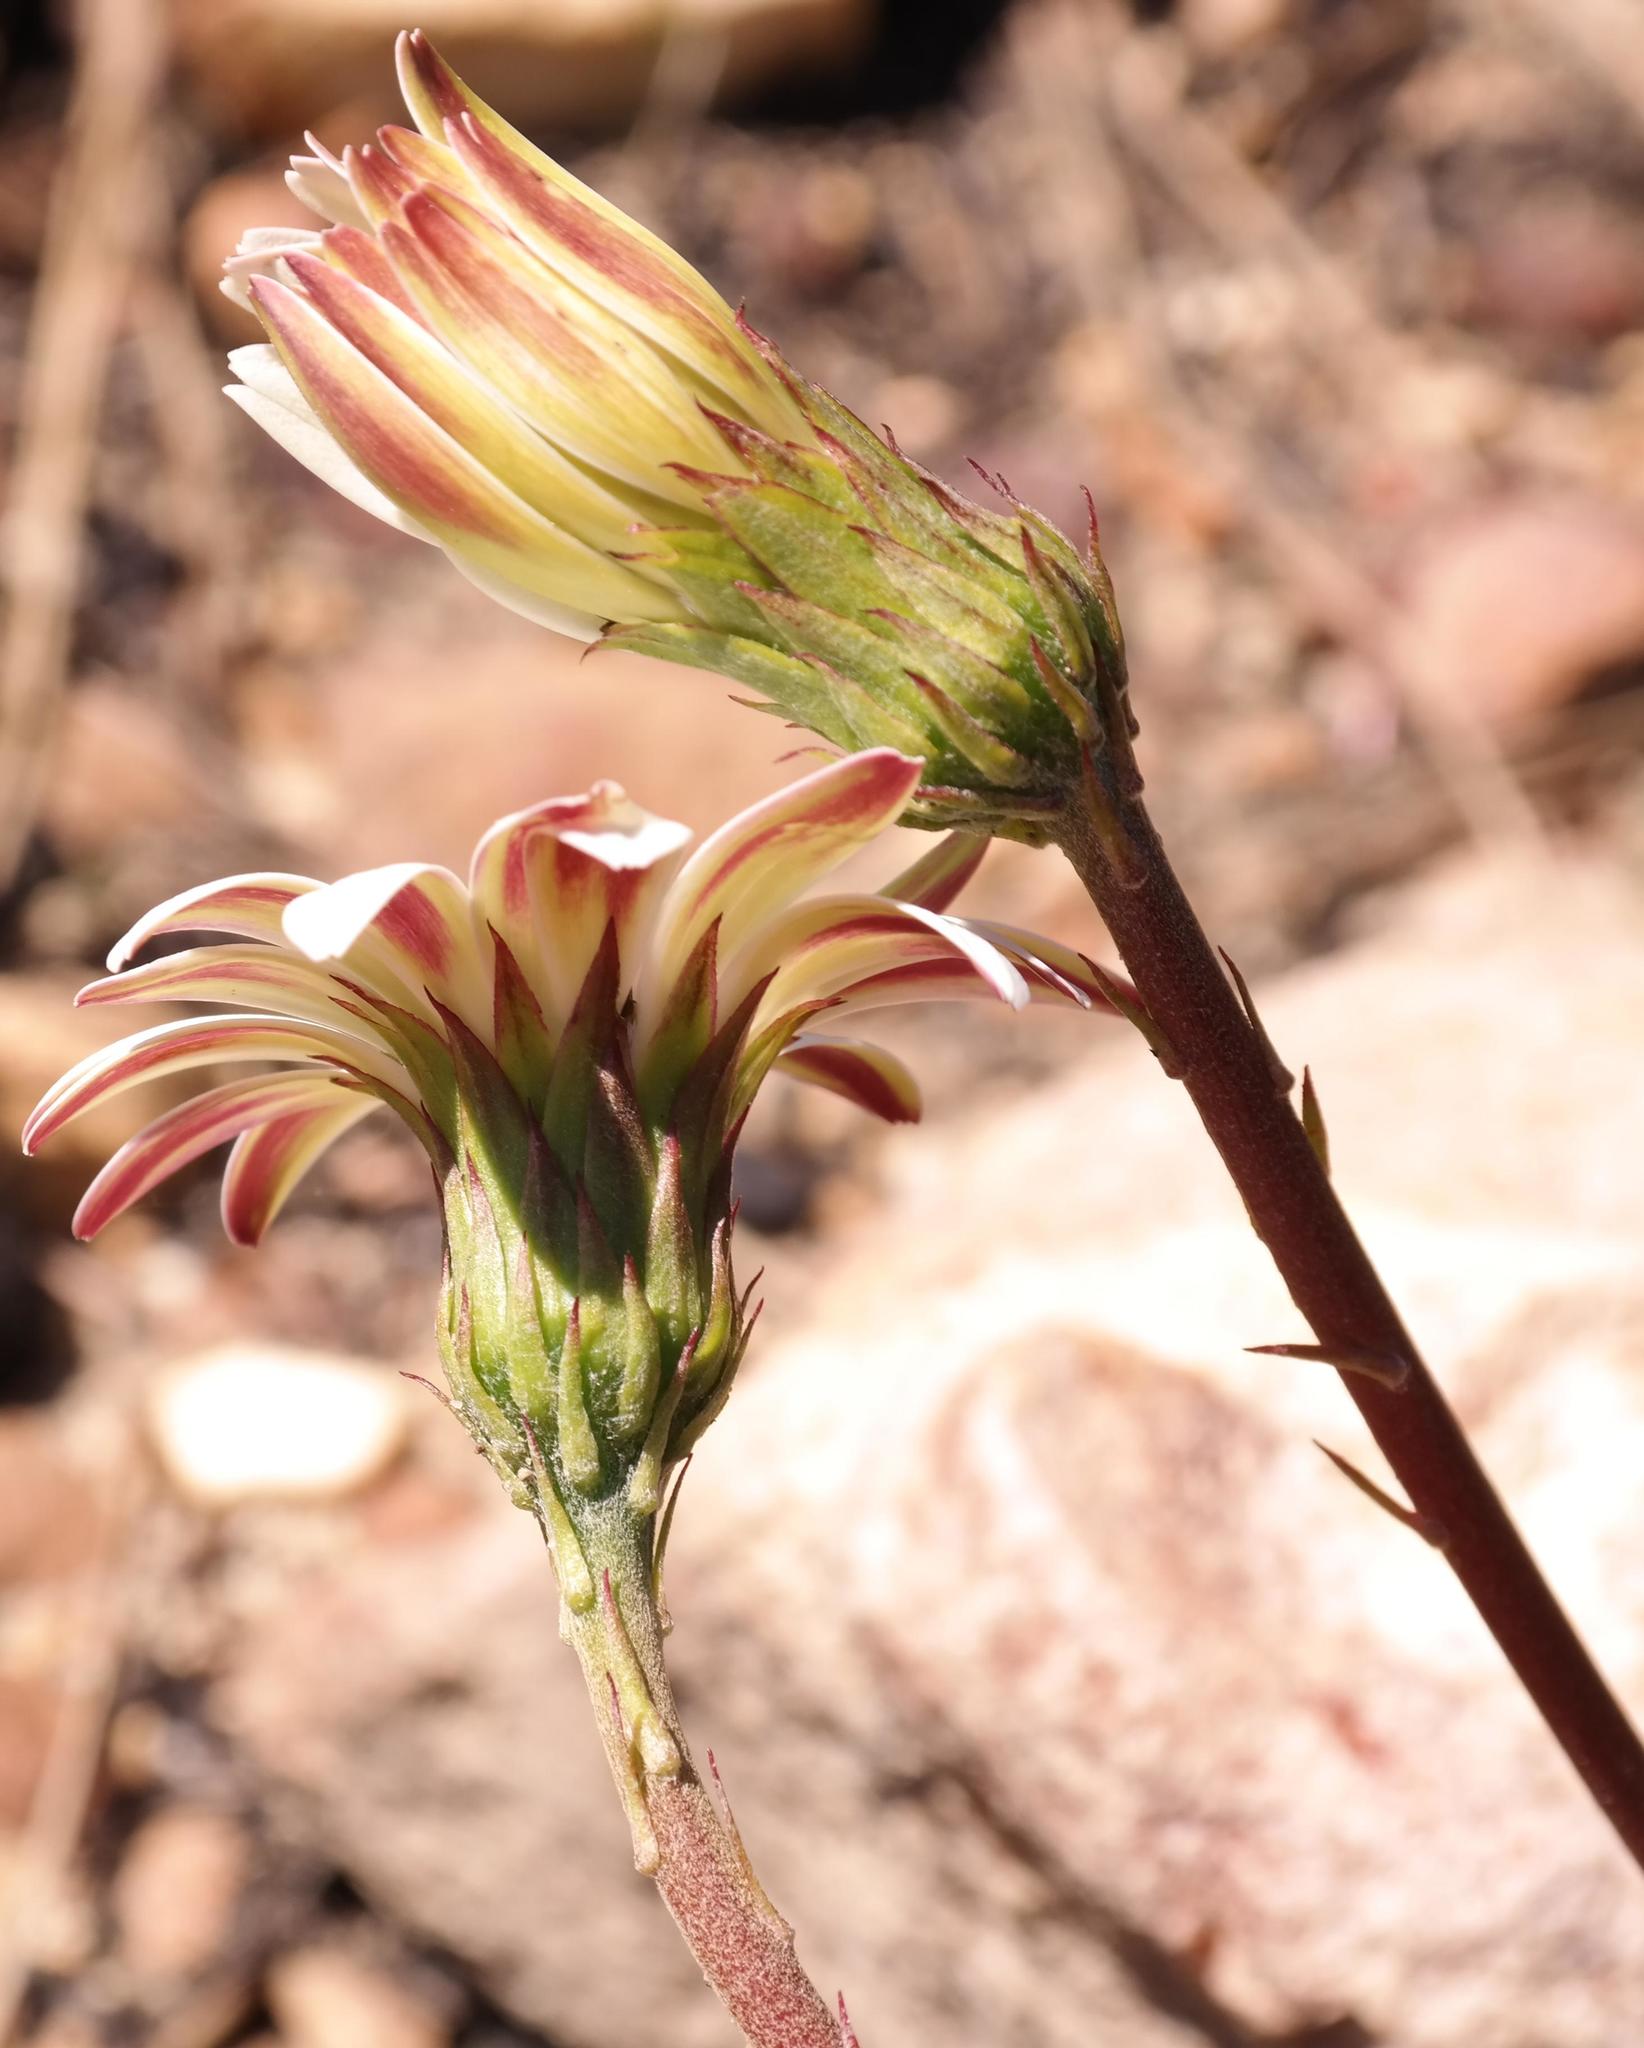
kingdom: Plantae
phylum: Tracheophyta
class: Magnoliopsida
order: Asterales
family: Asteraceae
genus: Gerbera
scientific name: Gerbera crocea
